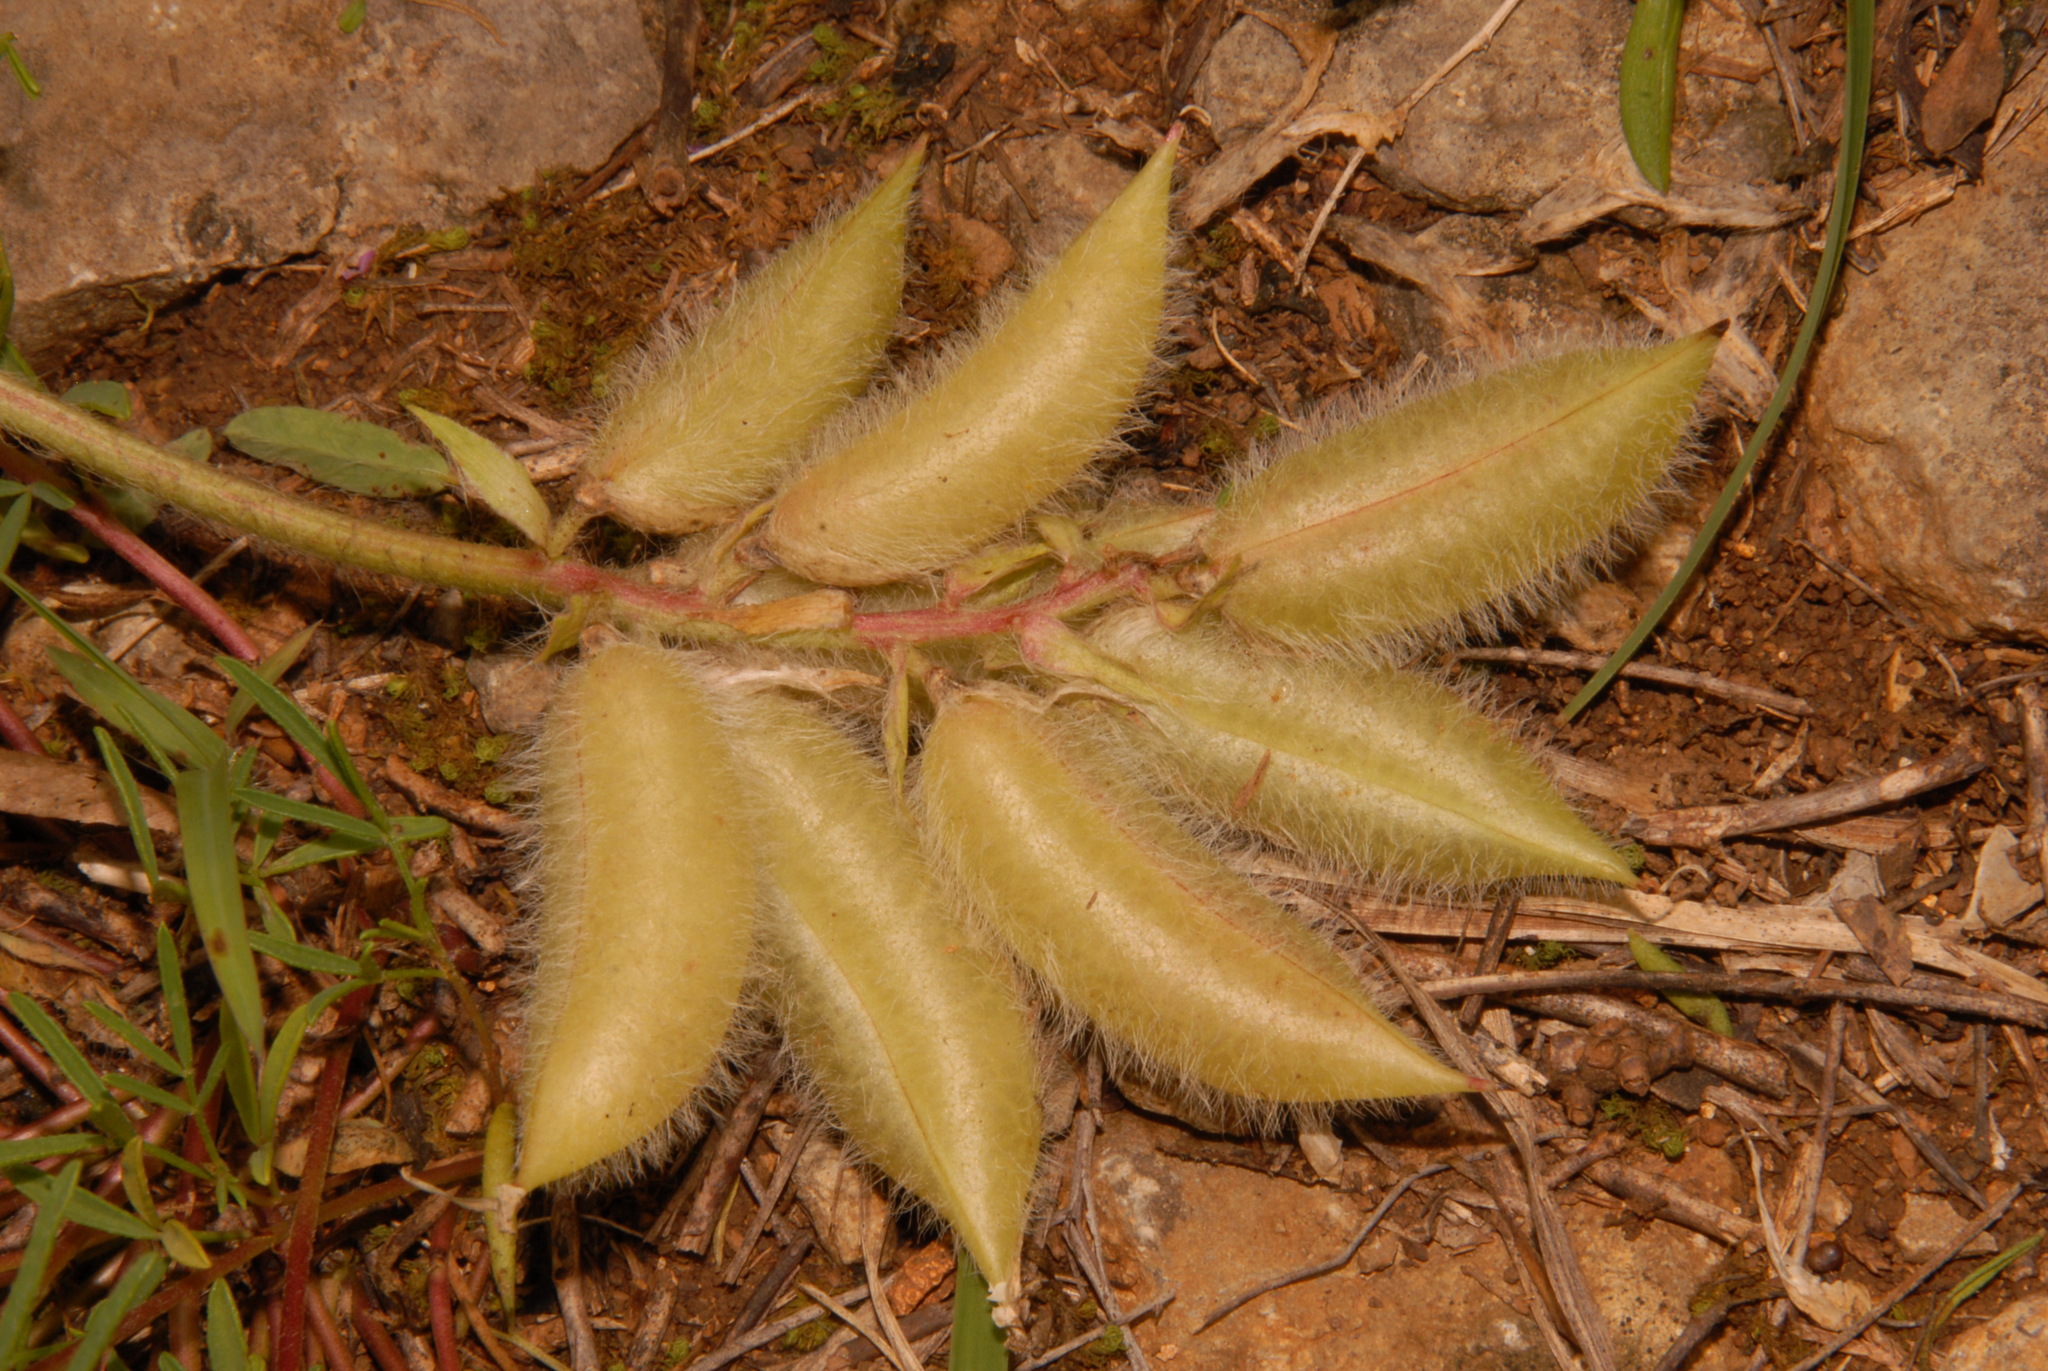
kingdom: Plantae
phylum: Tracheophyta
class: Magnoliopsida
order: Fabales
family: Fabaceae
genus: Astragalus
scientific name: Astragalus tennesseensis
